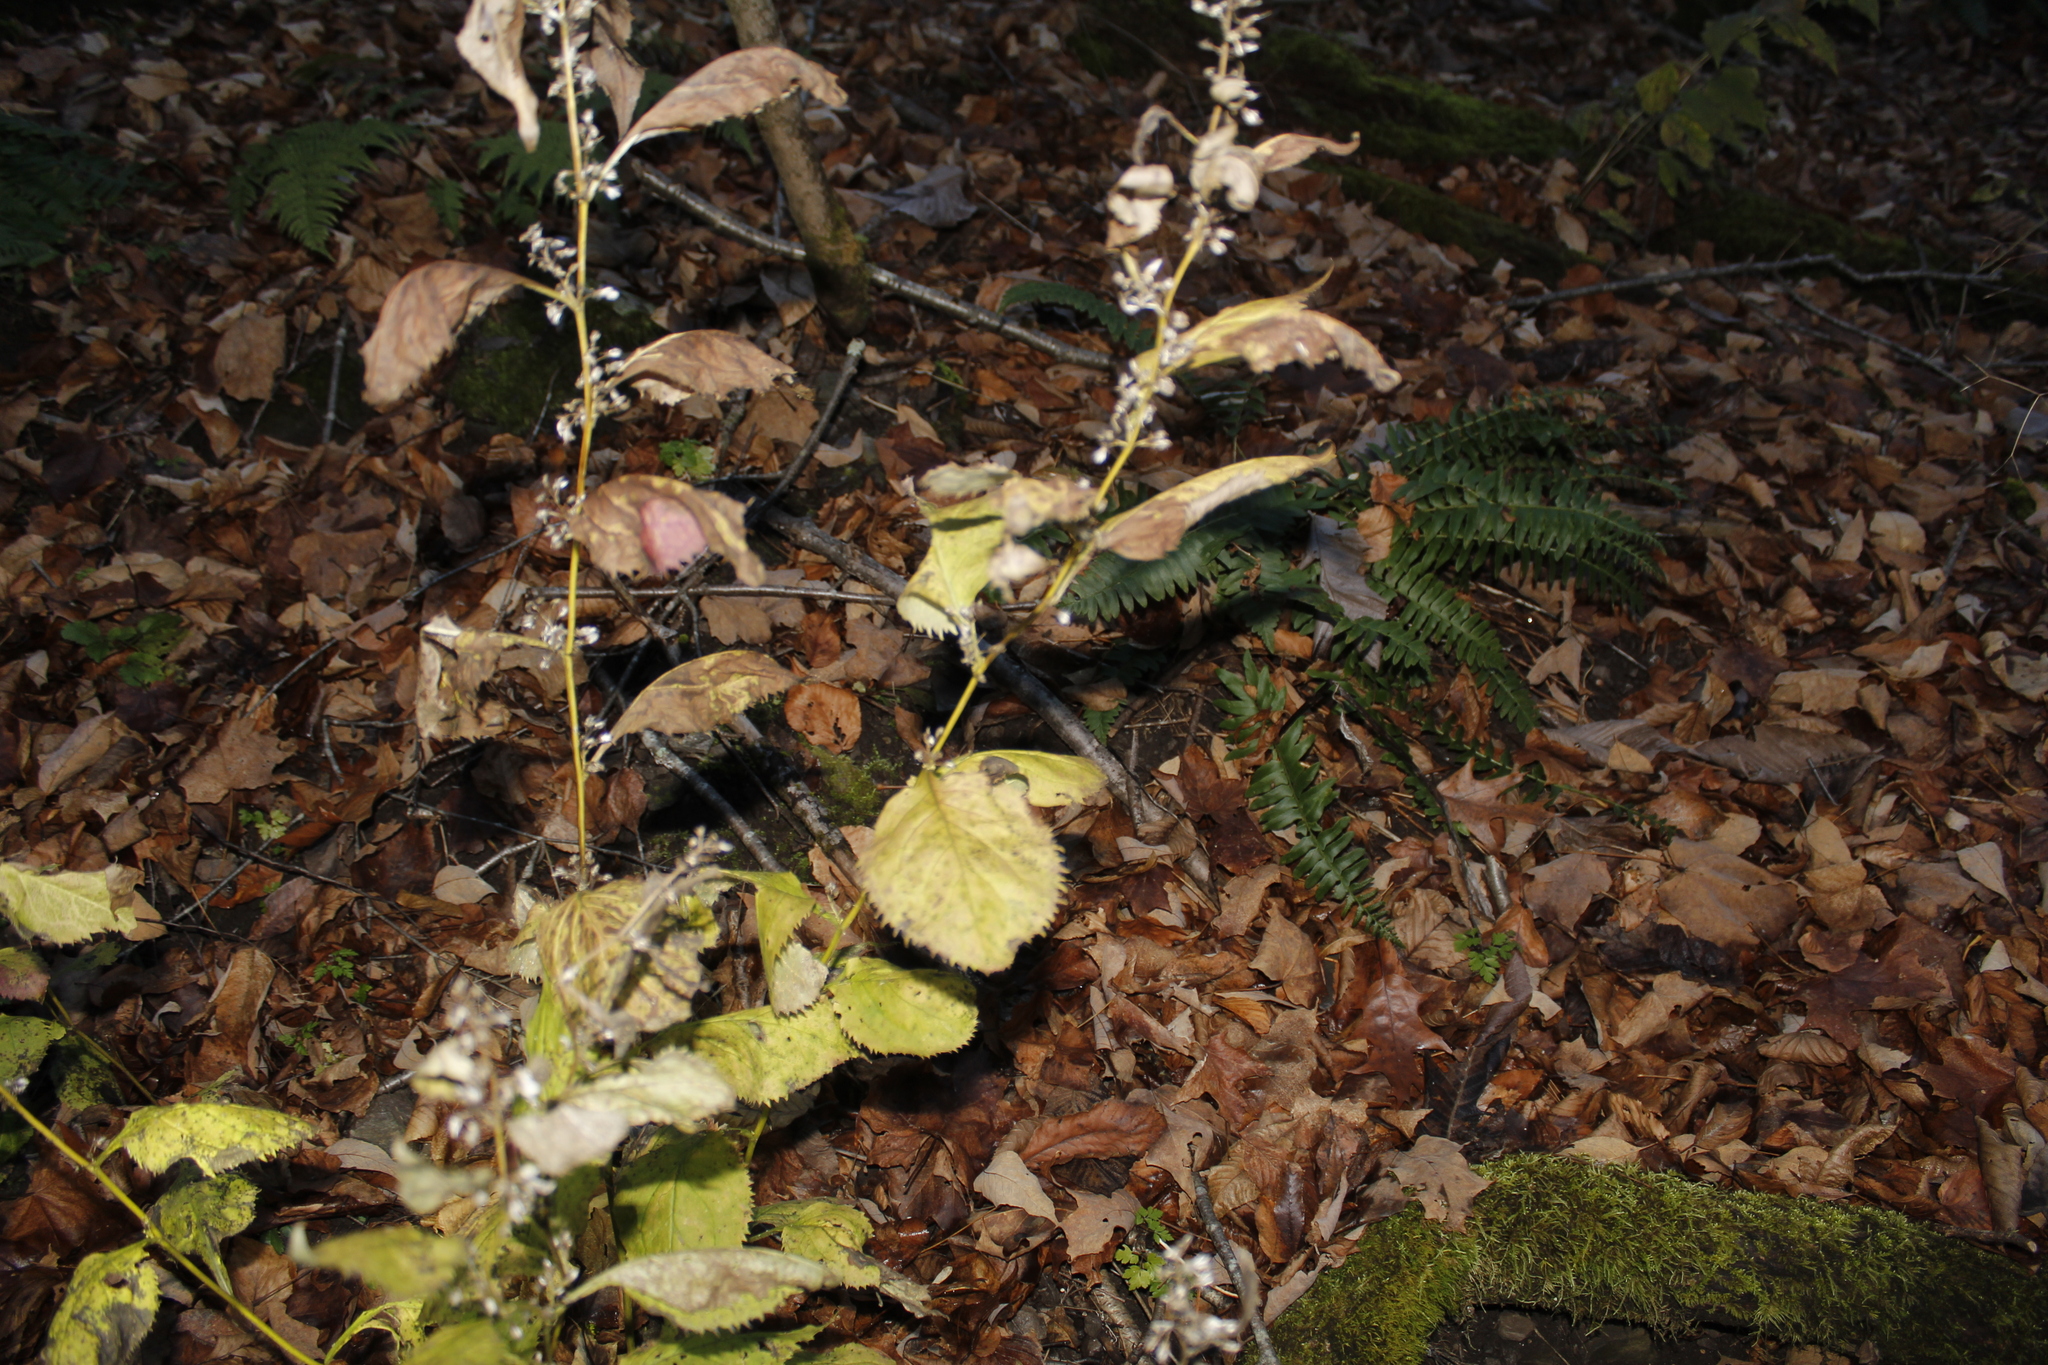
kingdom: Plantae
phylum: Tracheophyta
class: Magnoliopsida
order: Asterales
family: Asteraceae
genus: Solidago
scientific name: Solidago flexicaulis
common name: Zig-zag goldenrod
